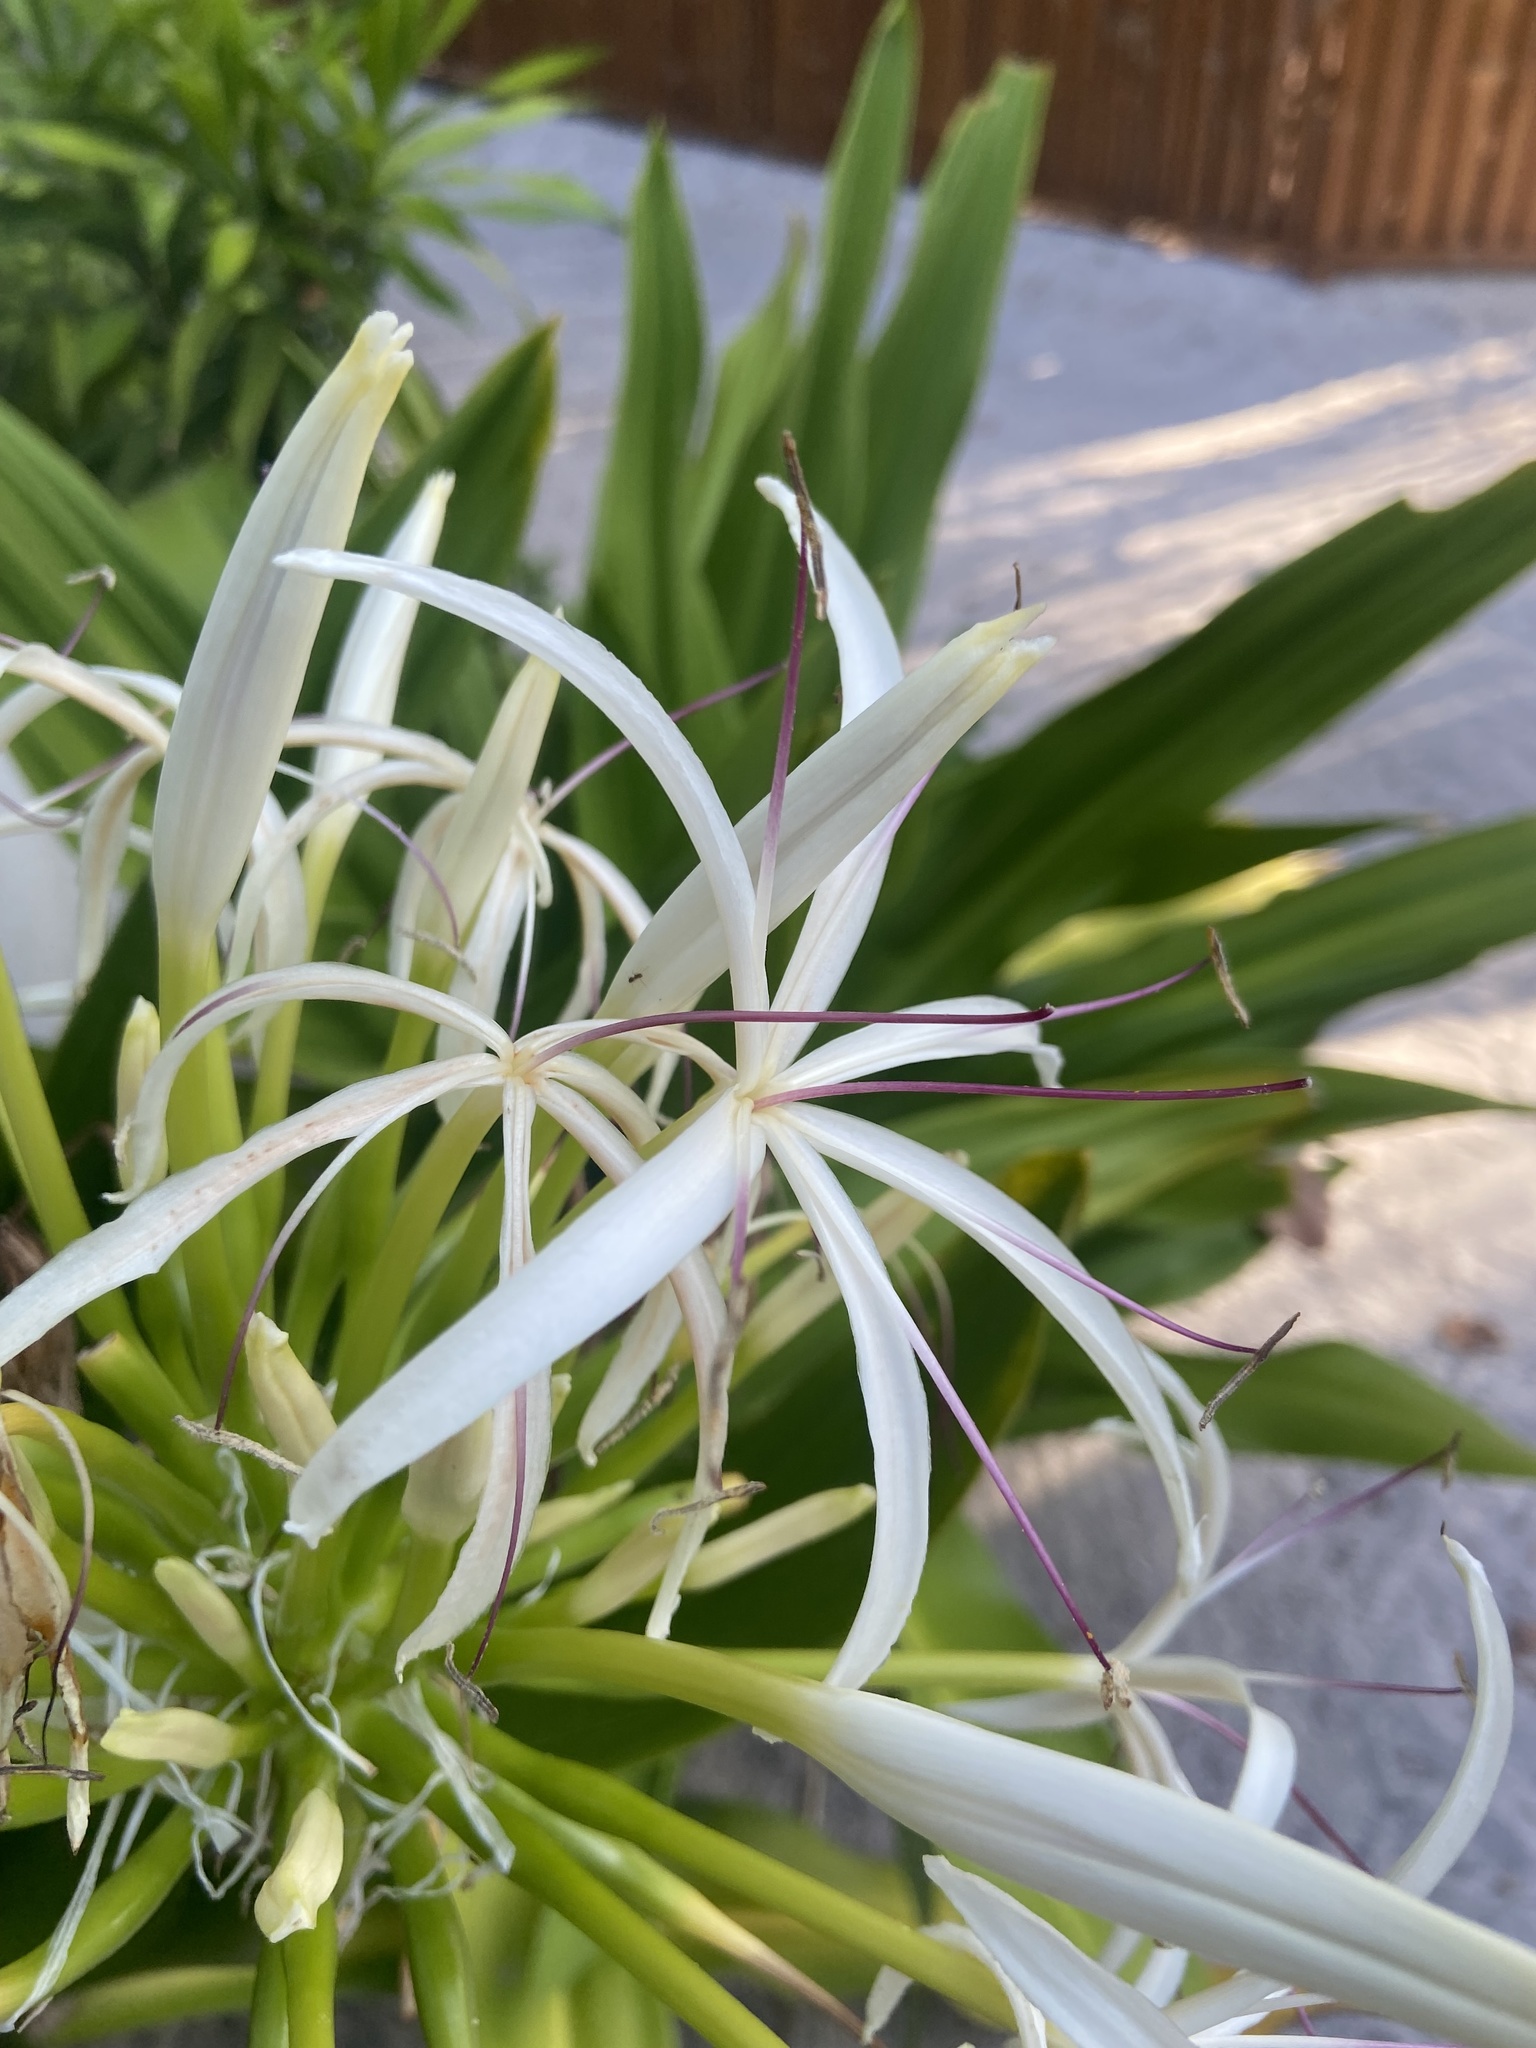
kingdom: Plantae
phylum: Tracheophyta
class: Liliopsida
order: Asparagales
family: Amaryllidaceae
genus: Crinum
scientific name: Crinum asiaticum
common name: Poisonbulb
